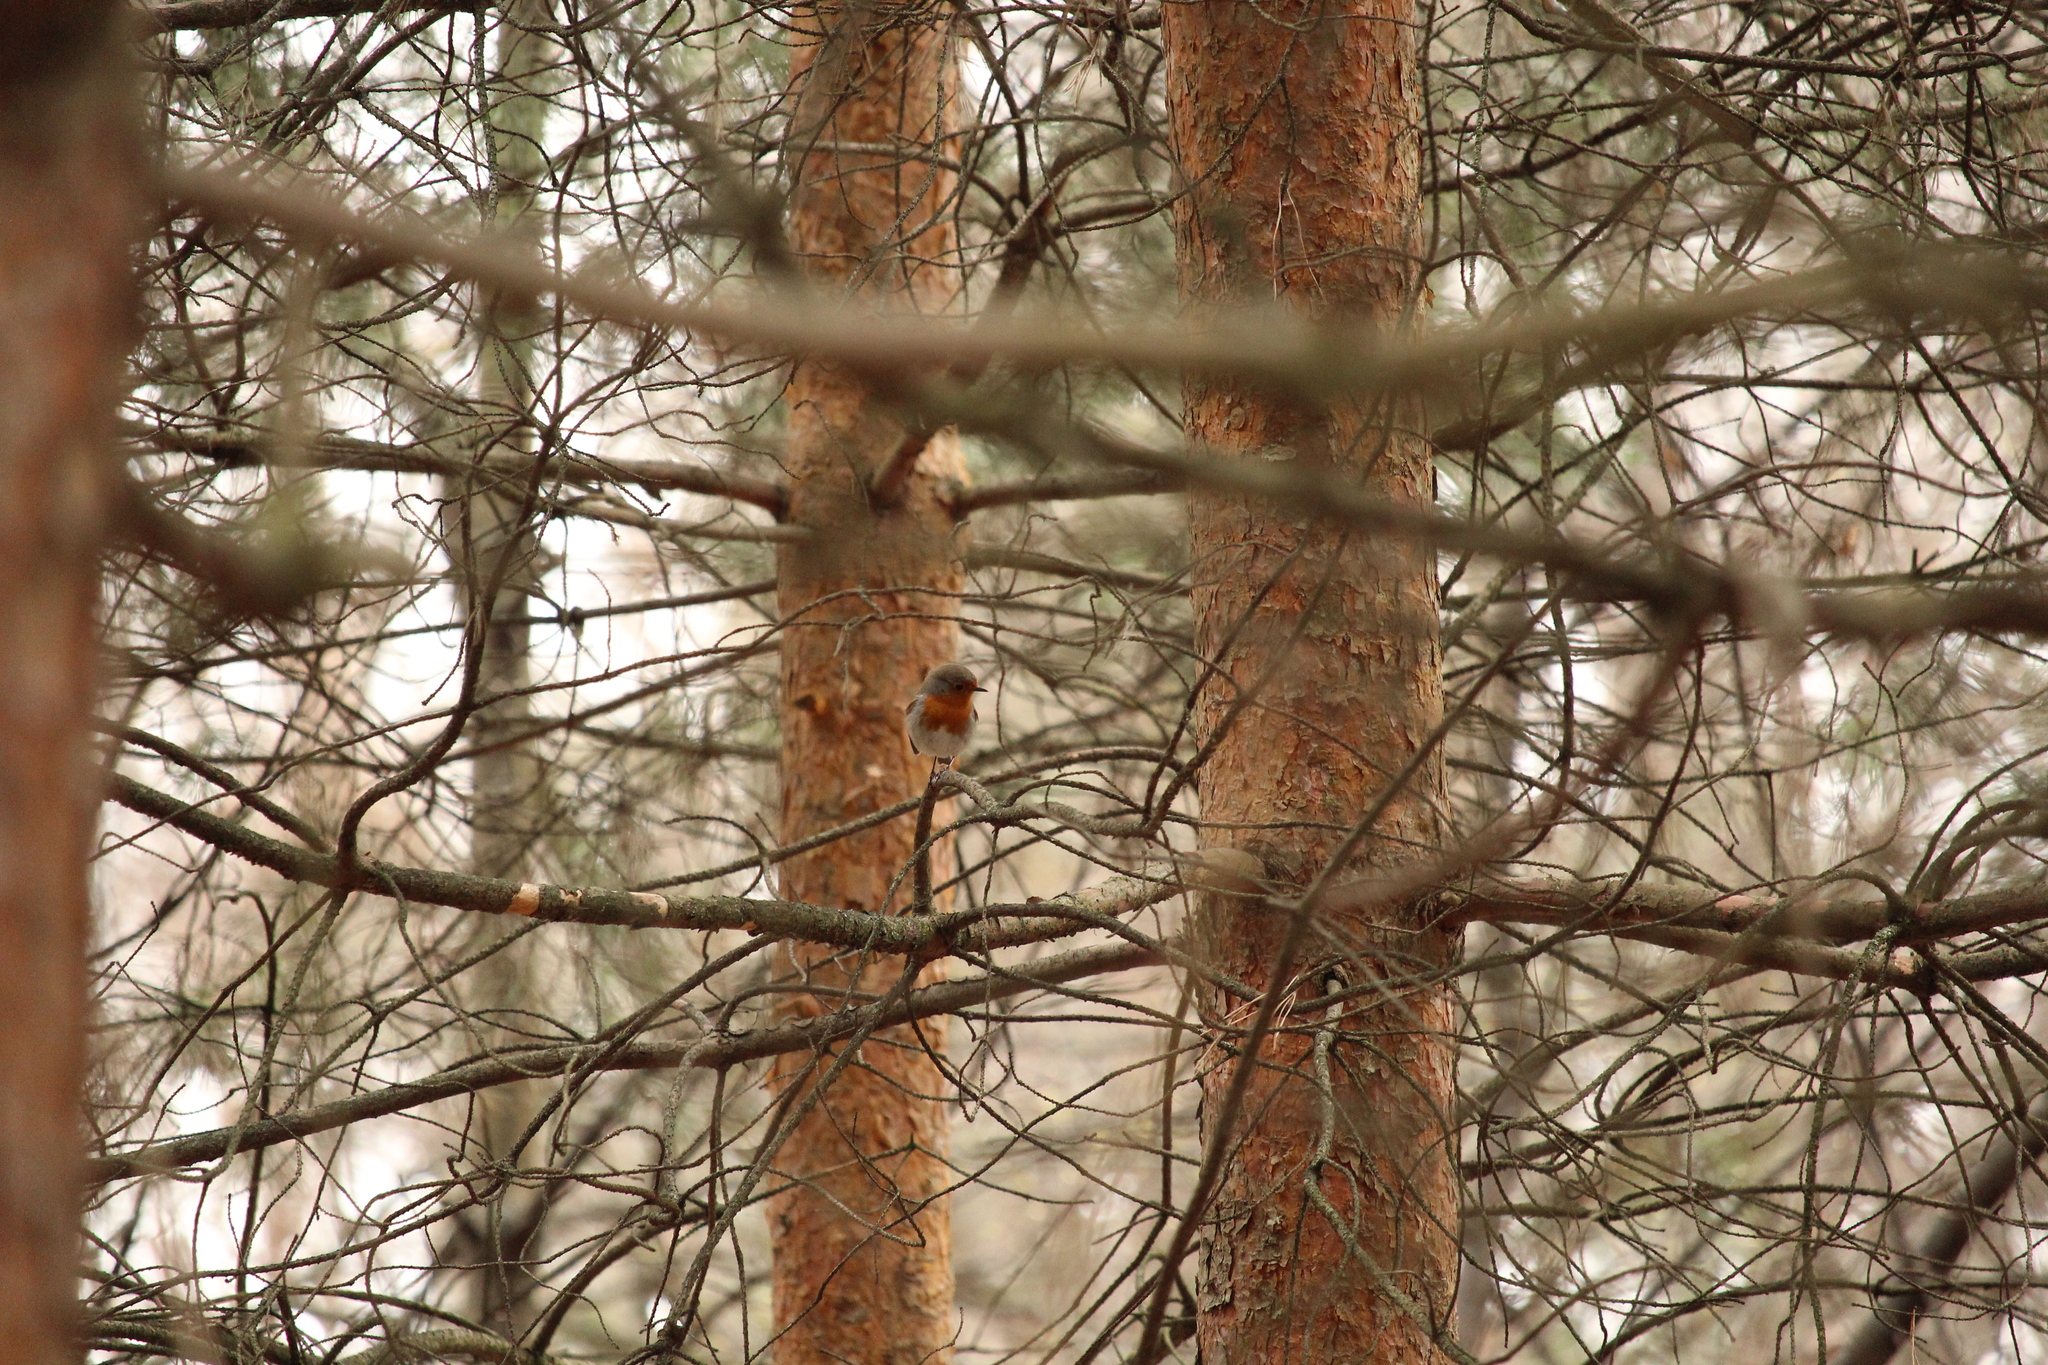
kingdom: Animalia
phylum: Chordata
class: Aves
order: Passeriformes
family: Muscicapidae
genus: Erithacus
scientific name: Erithacus rubecula
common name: European robin
